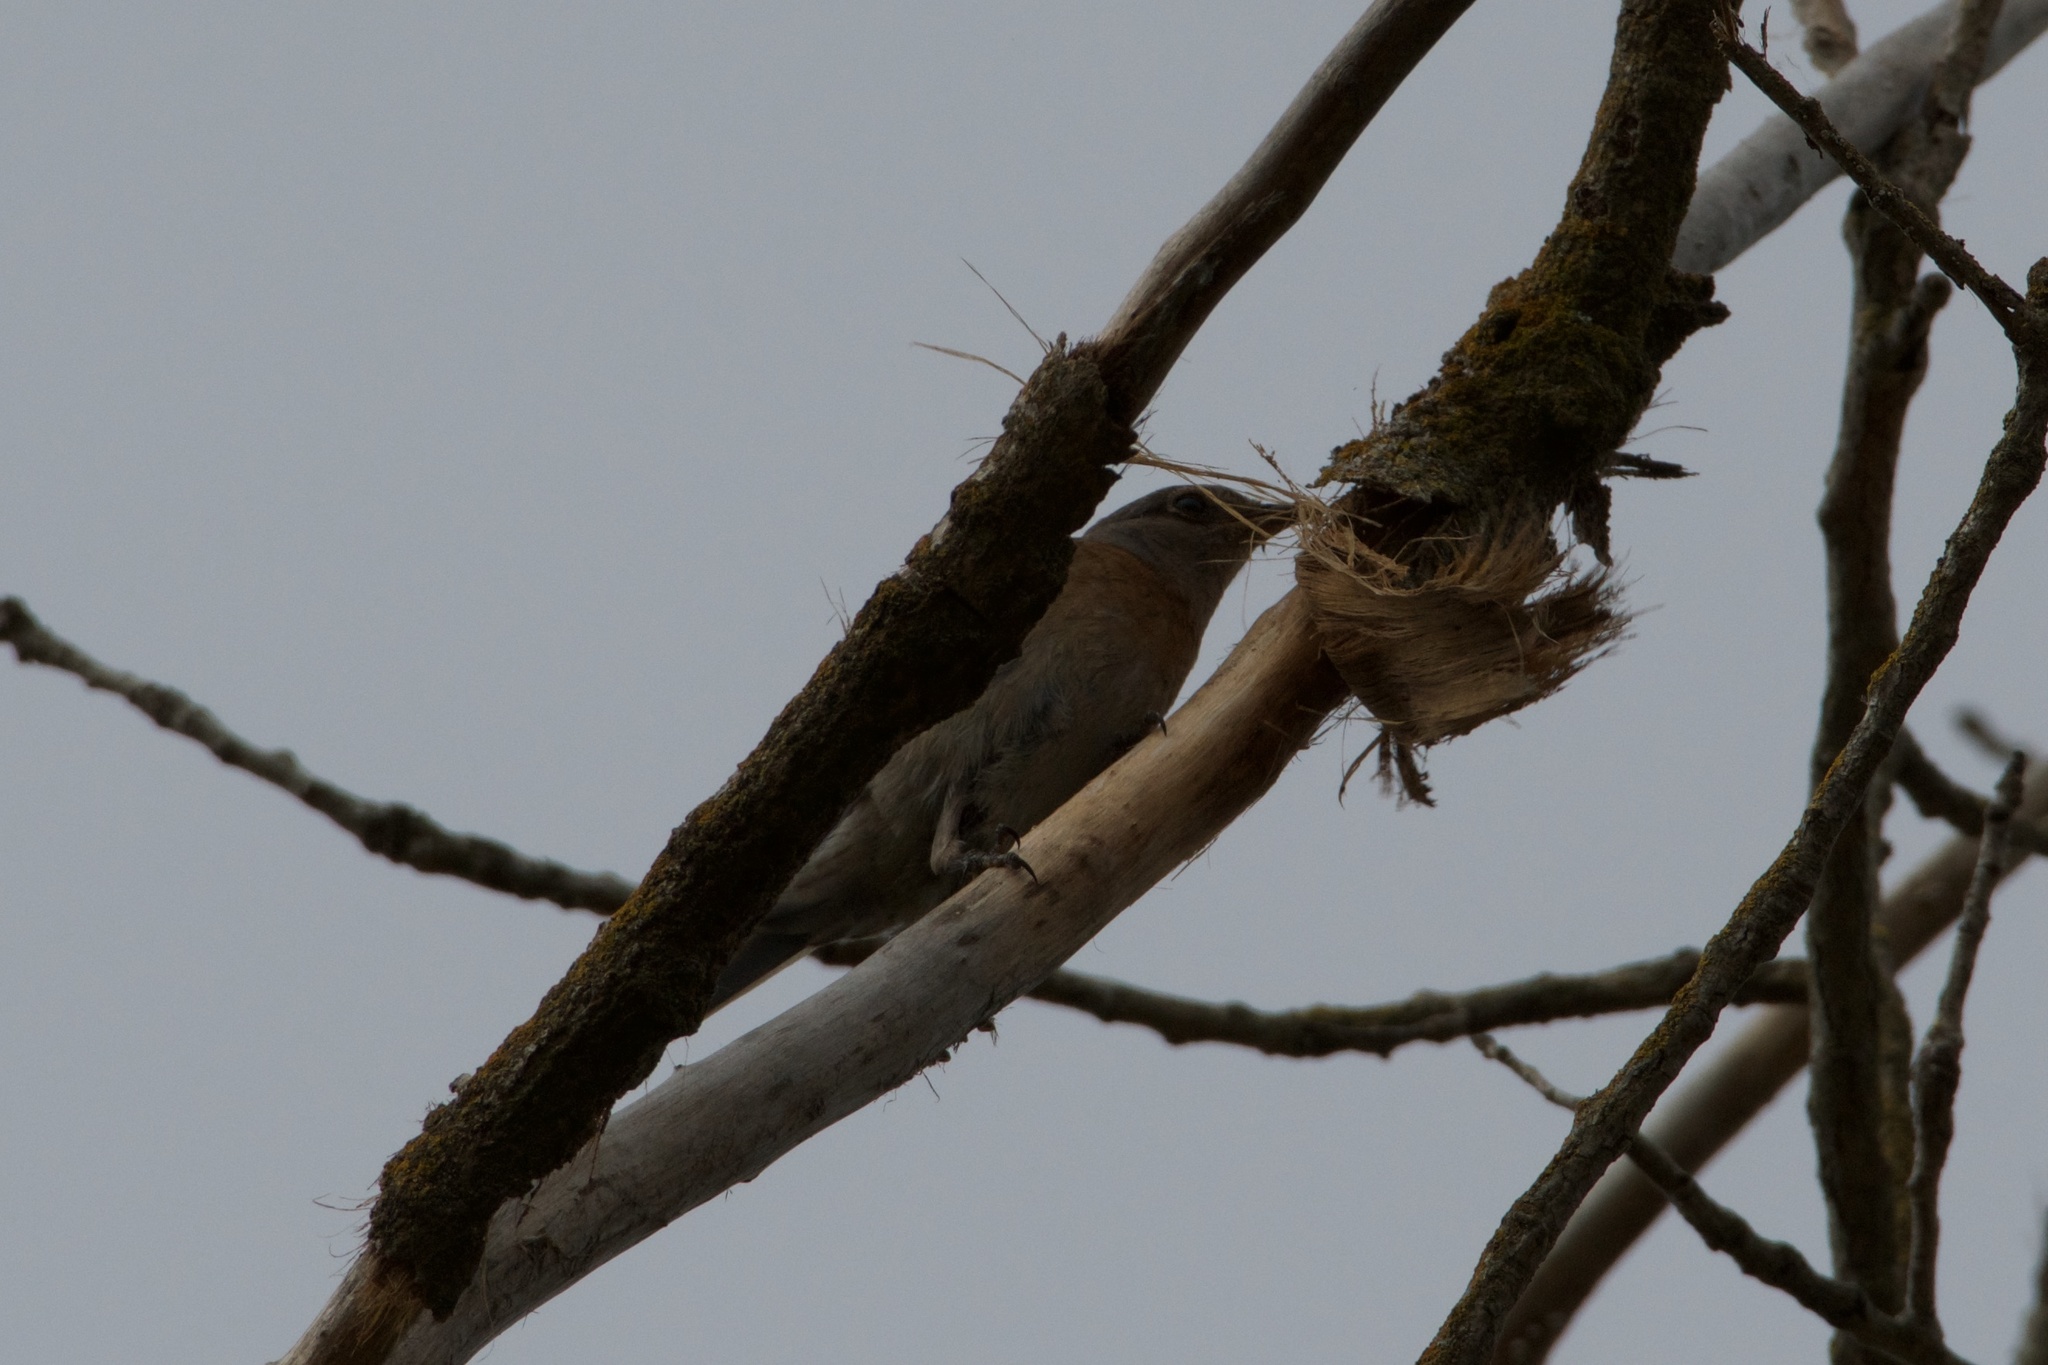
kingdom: Animalia
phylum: Chordata
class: Aves
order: Passeriformes
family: Turdidae
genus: Sialia
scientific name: Sialia mexicana
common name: Western bluebird
